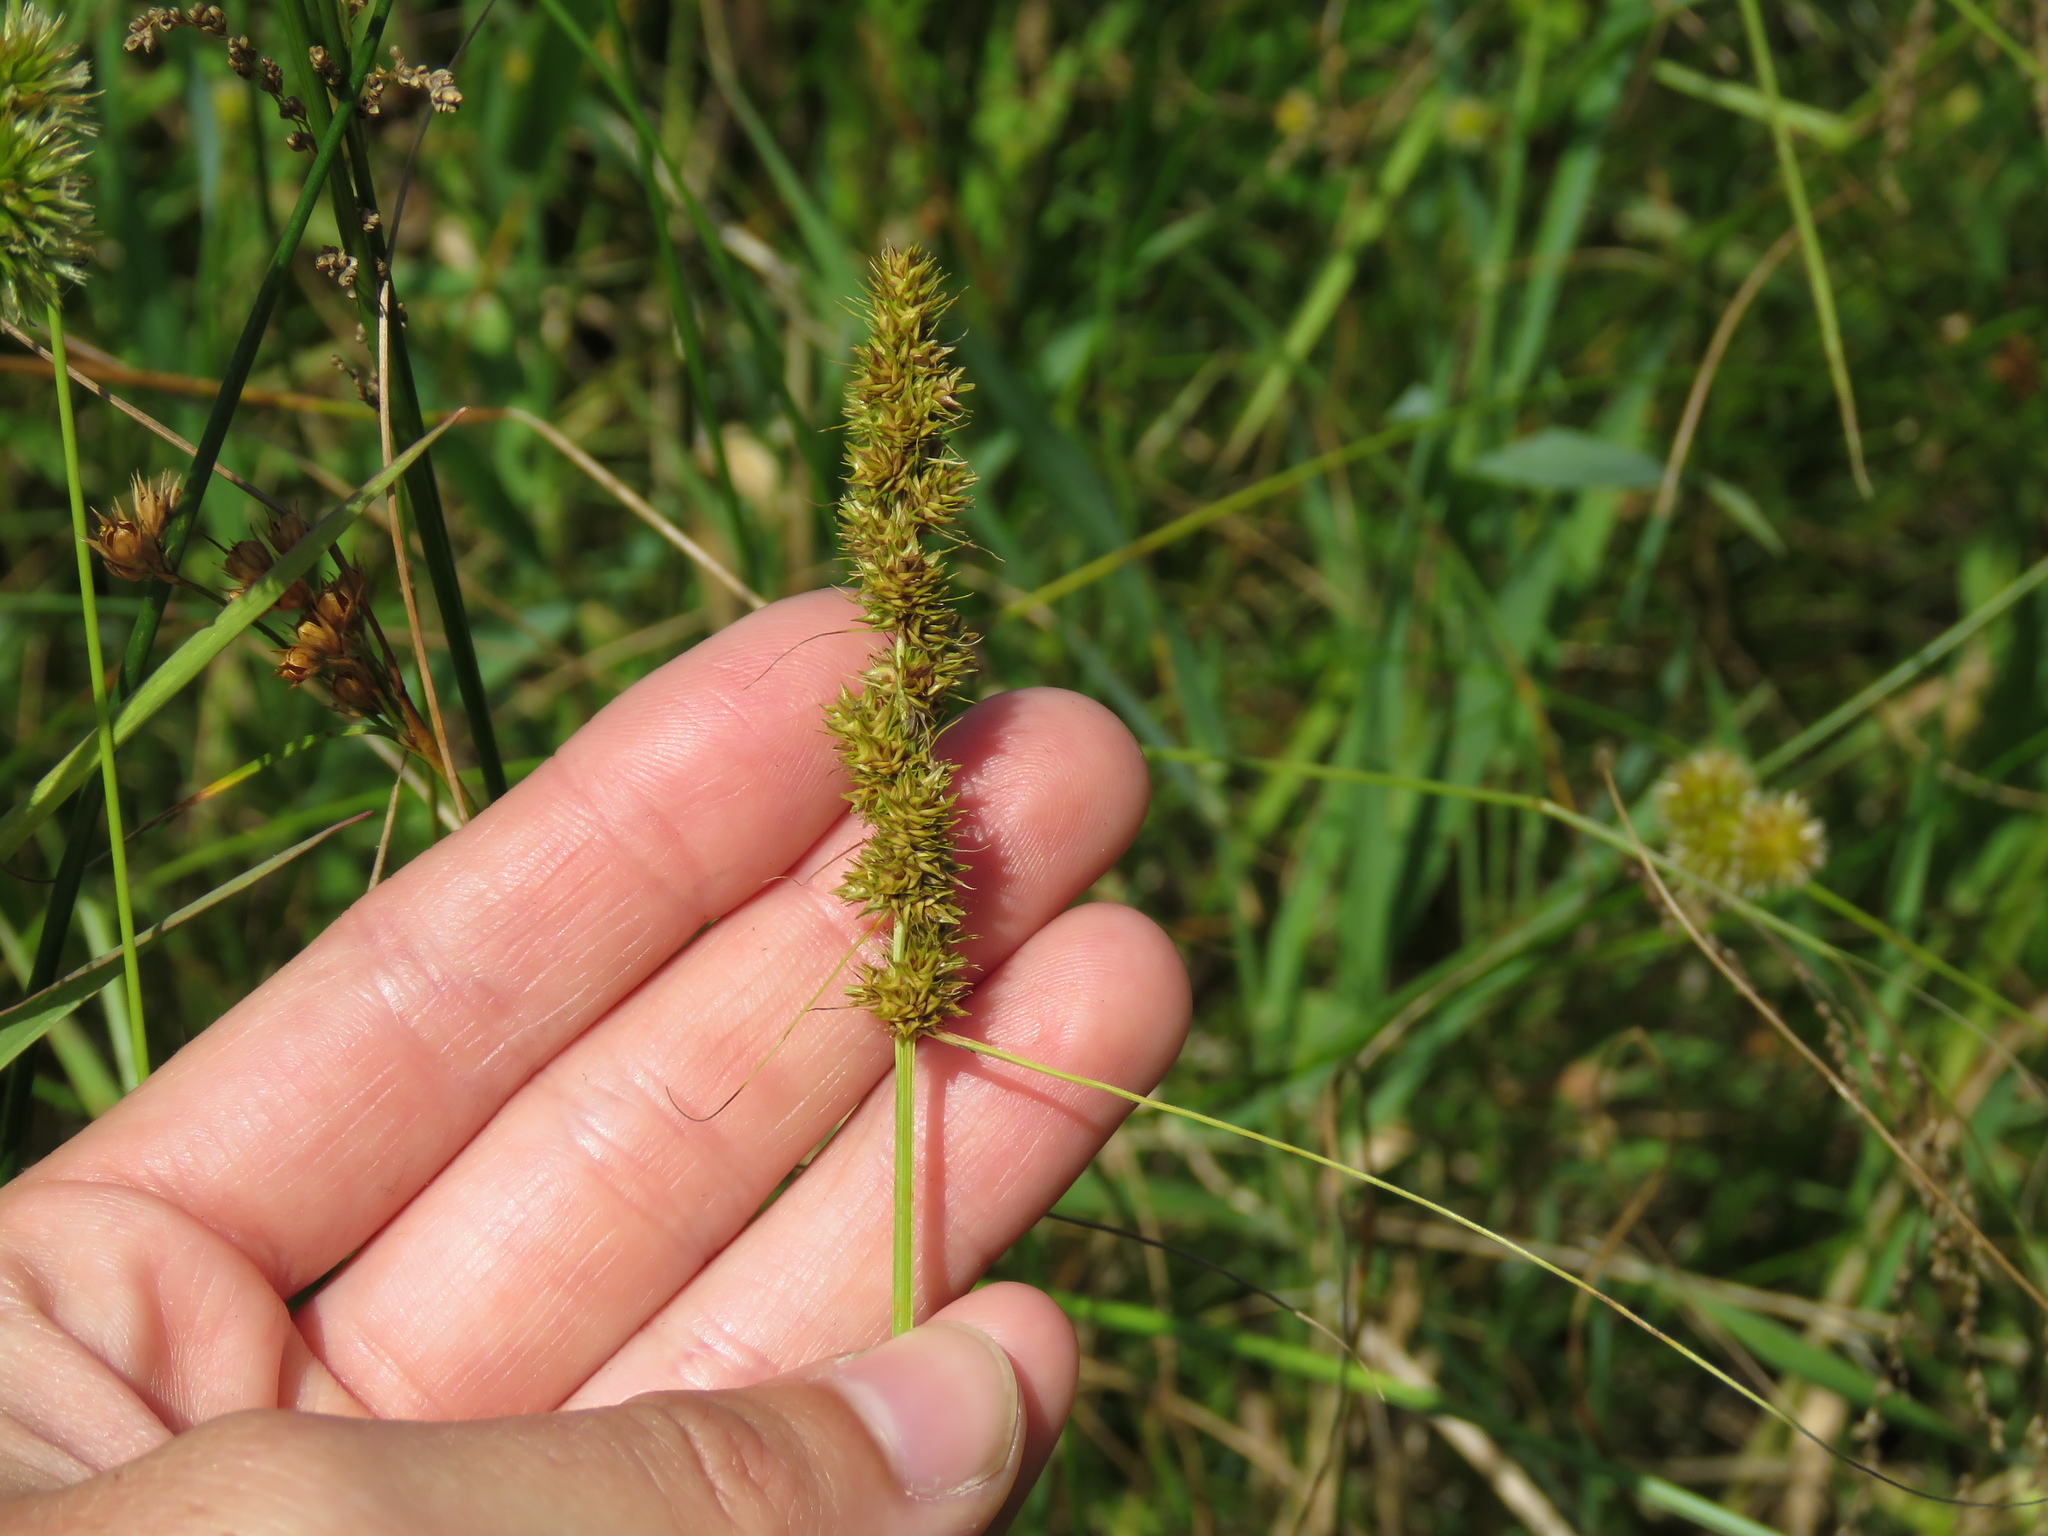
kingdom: Plantae
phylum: Tracheophyta
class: Liliopsida
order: Poales
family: Cyperaceae
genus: Carex
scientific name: Carex vulpinoidea
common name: American fox-sedge
